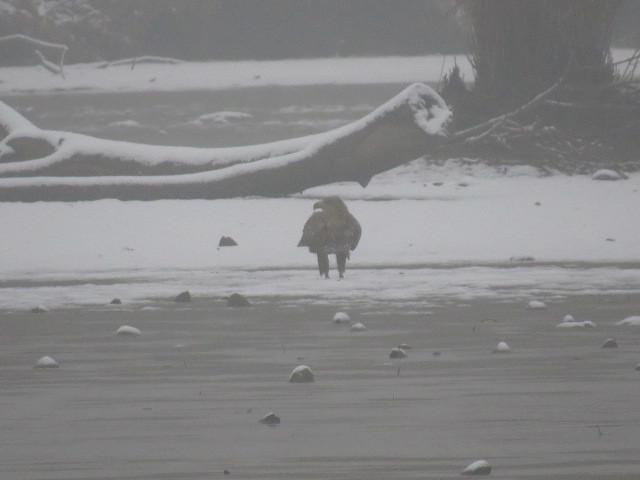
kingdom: Animalia
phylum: Chordata
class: Aves
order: Accipitriformes
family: Accipitridae
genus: Haliaeetus
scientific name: Haliaeetus albicilla
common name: White-tailed eagle
